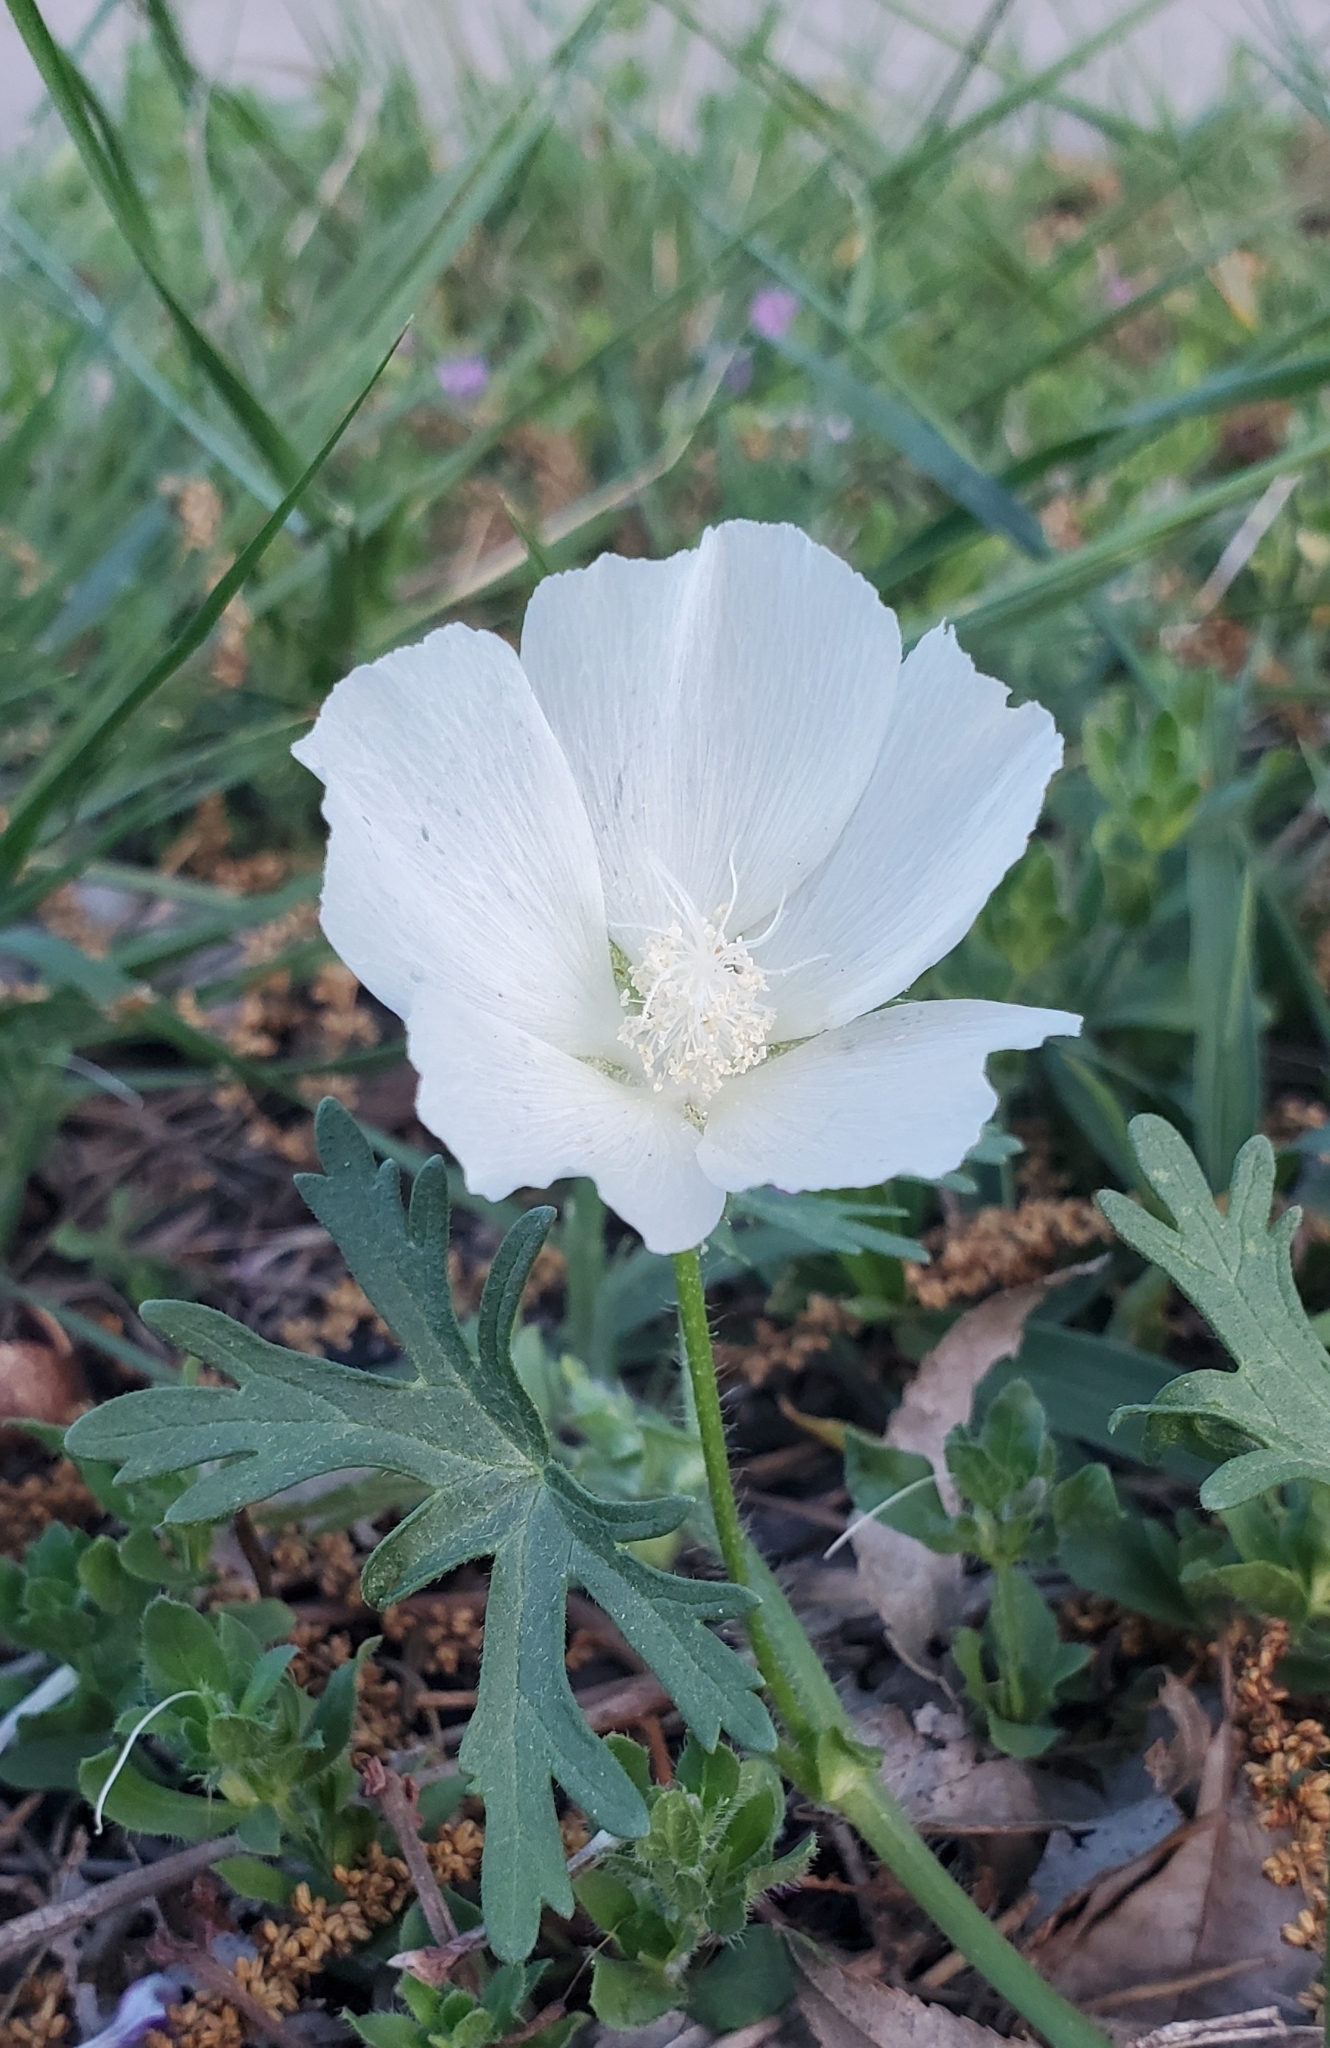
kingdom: Plantae
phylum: Tracheophyta
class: Magnoliopsida
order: Malvales
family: Malvaceae
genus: Callirhoe
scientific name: Callirhoe involucrata
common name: Purple poppy-mallow
